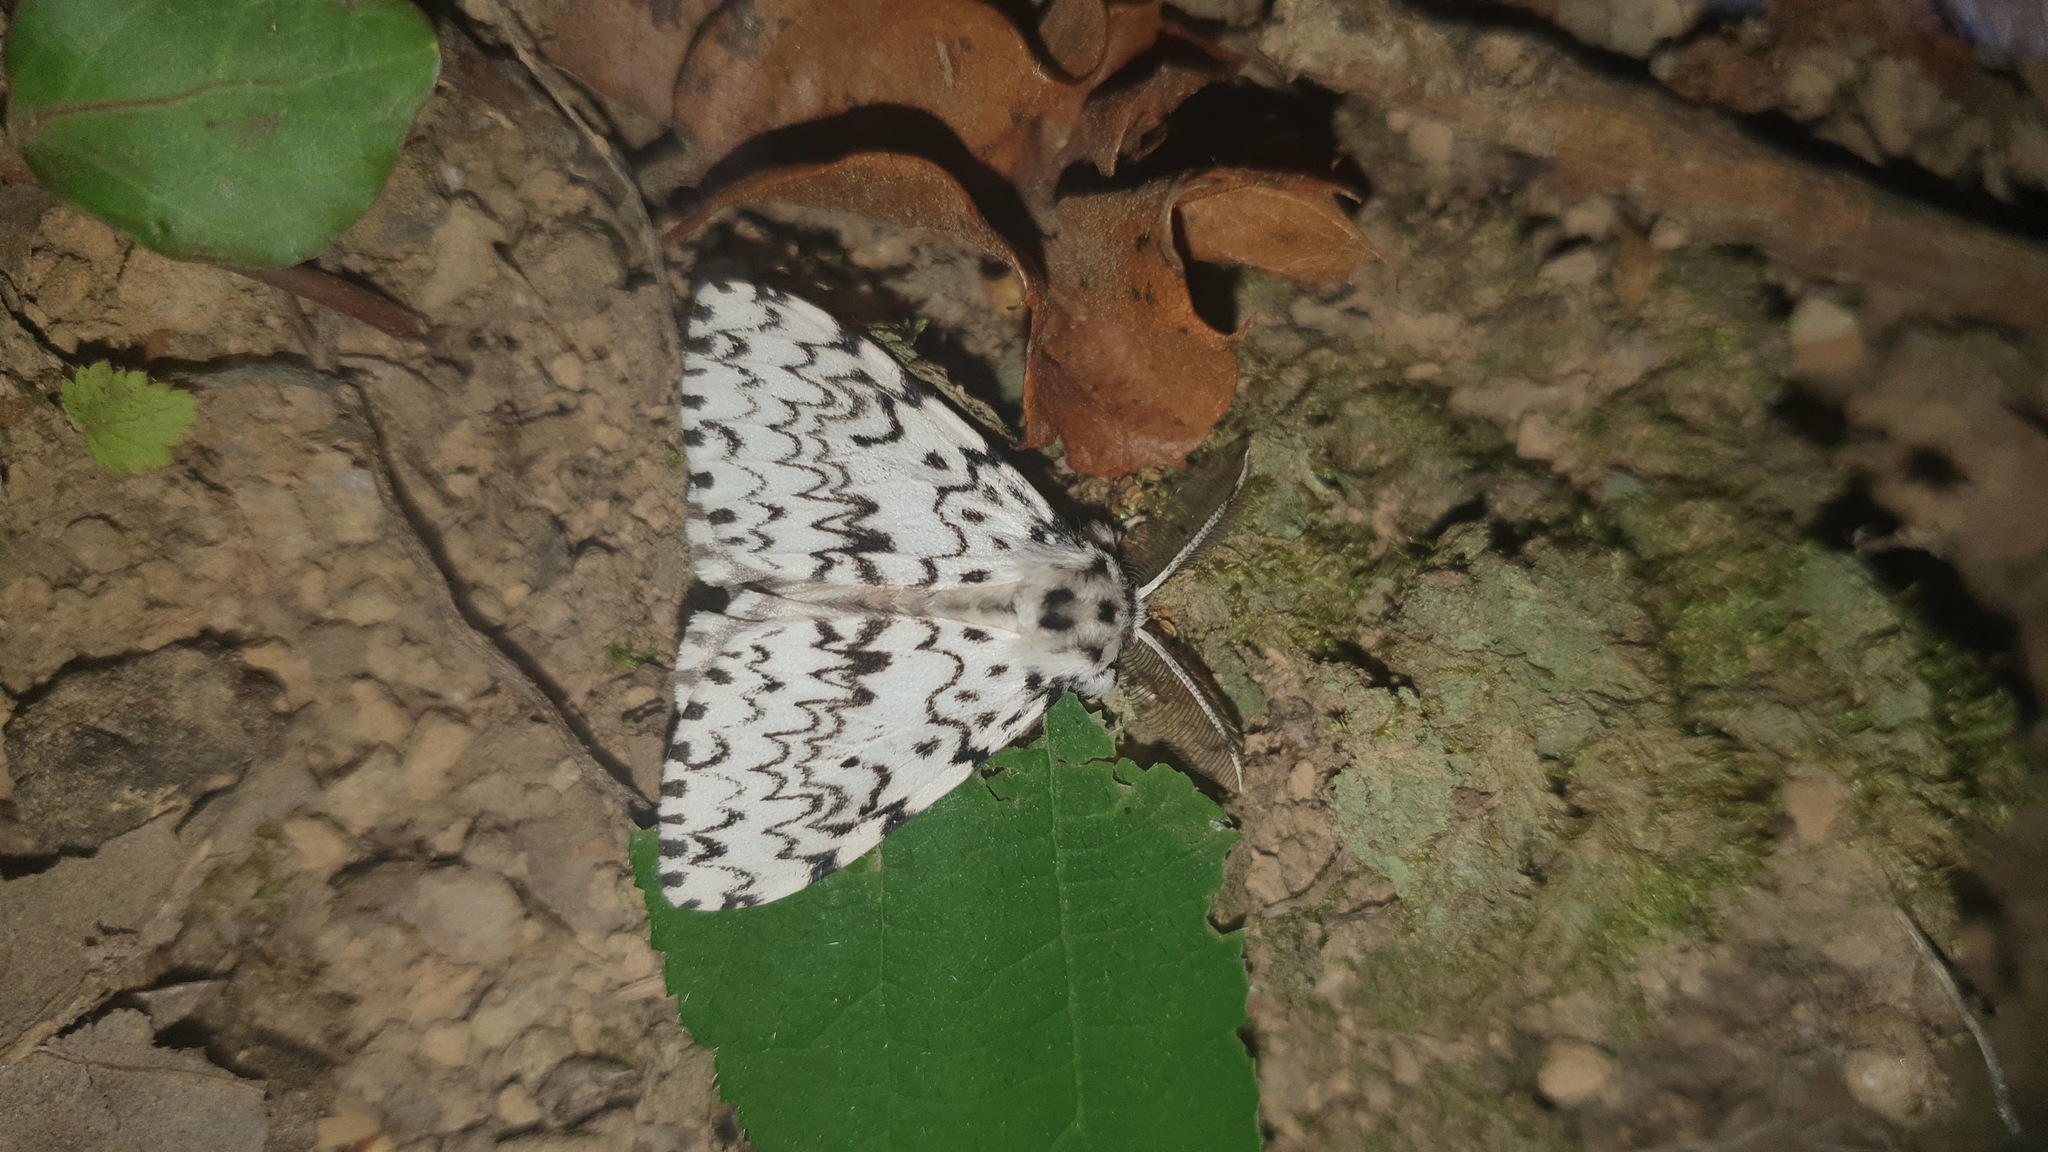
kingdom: Animalia
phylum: Arthropoda
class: Insecta
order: Lepidoptera
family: Erebidae
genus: Lymantria
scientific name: Lymantria monacha
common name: Black arches
